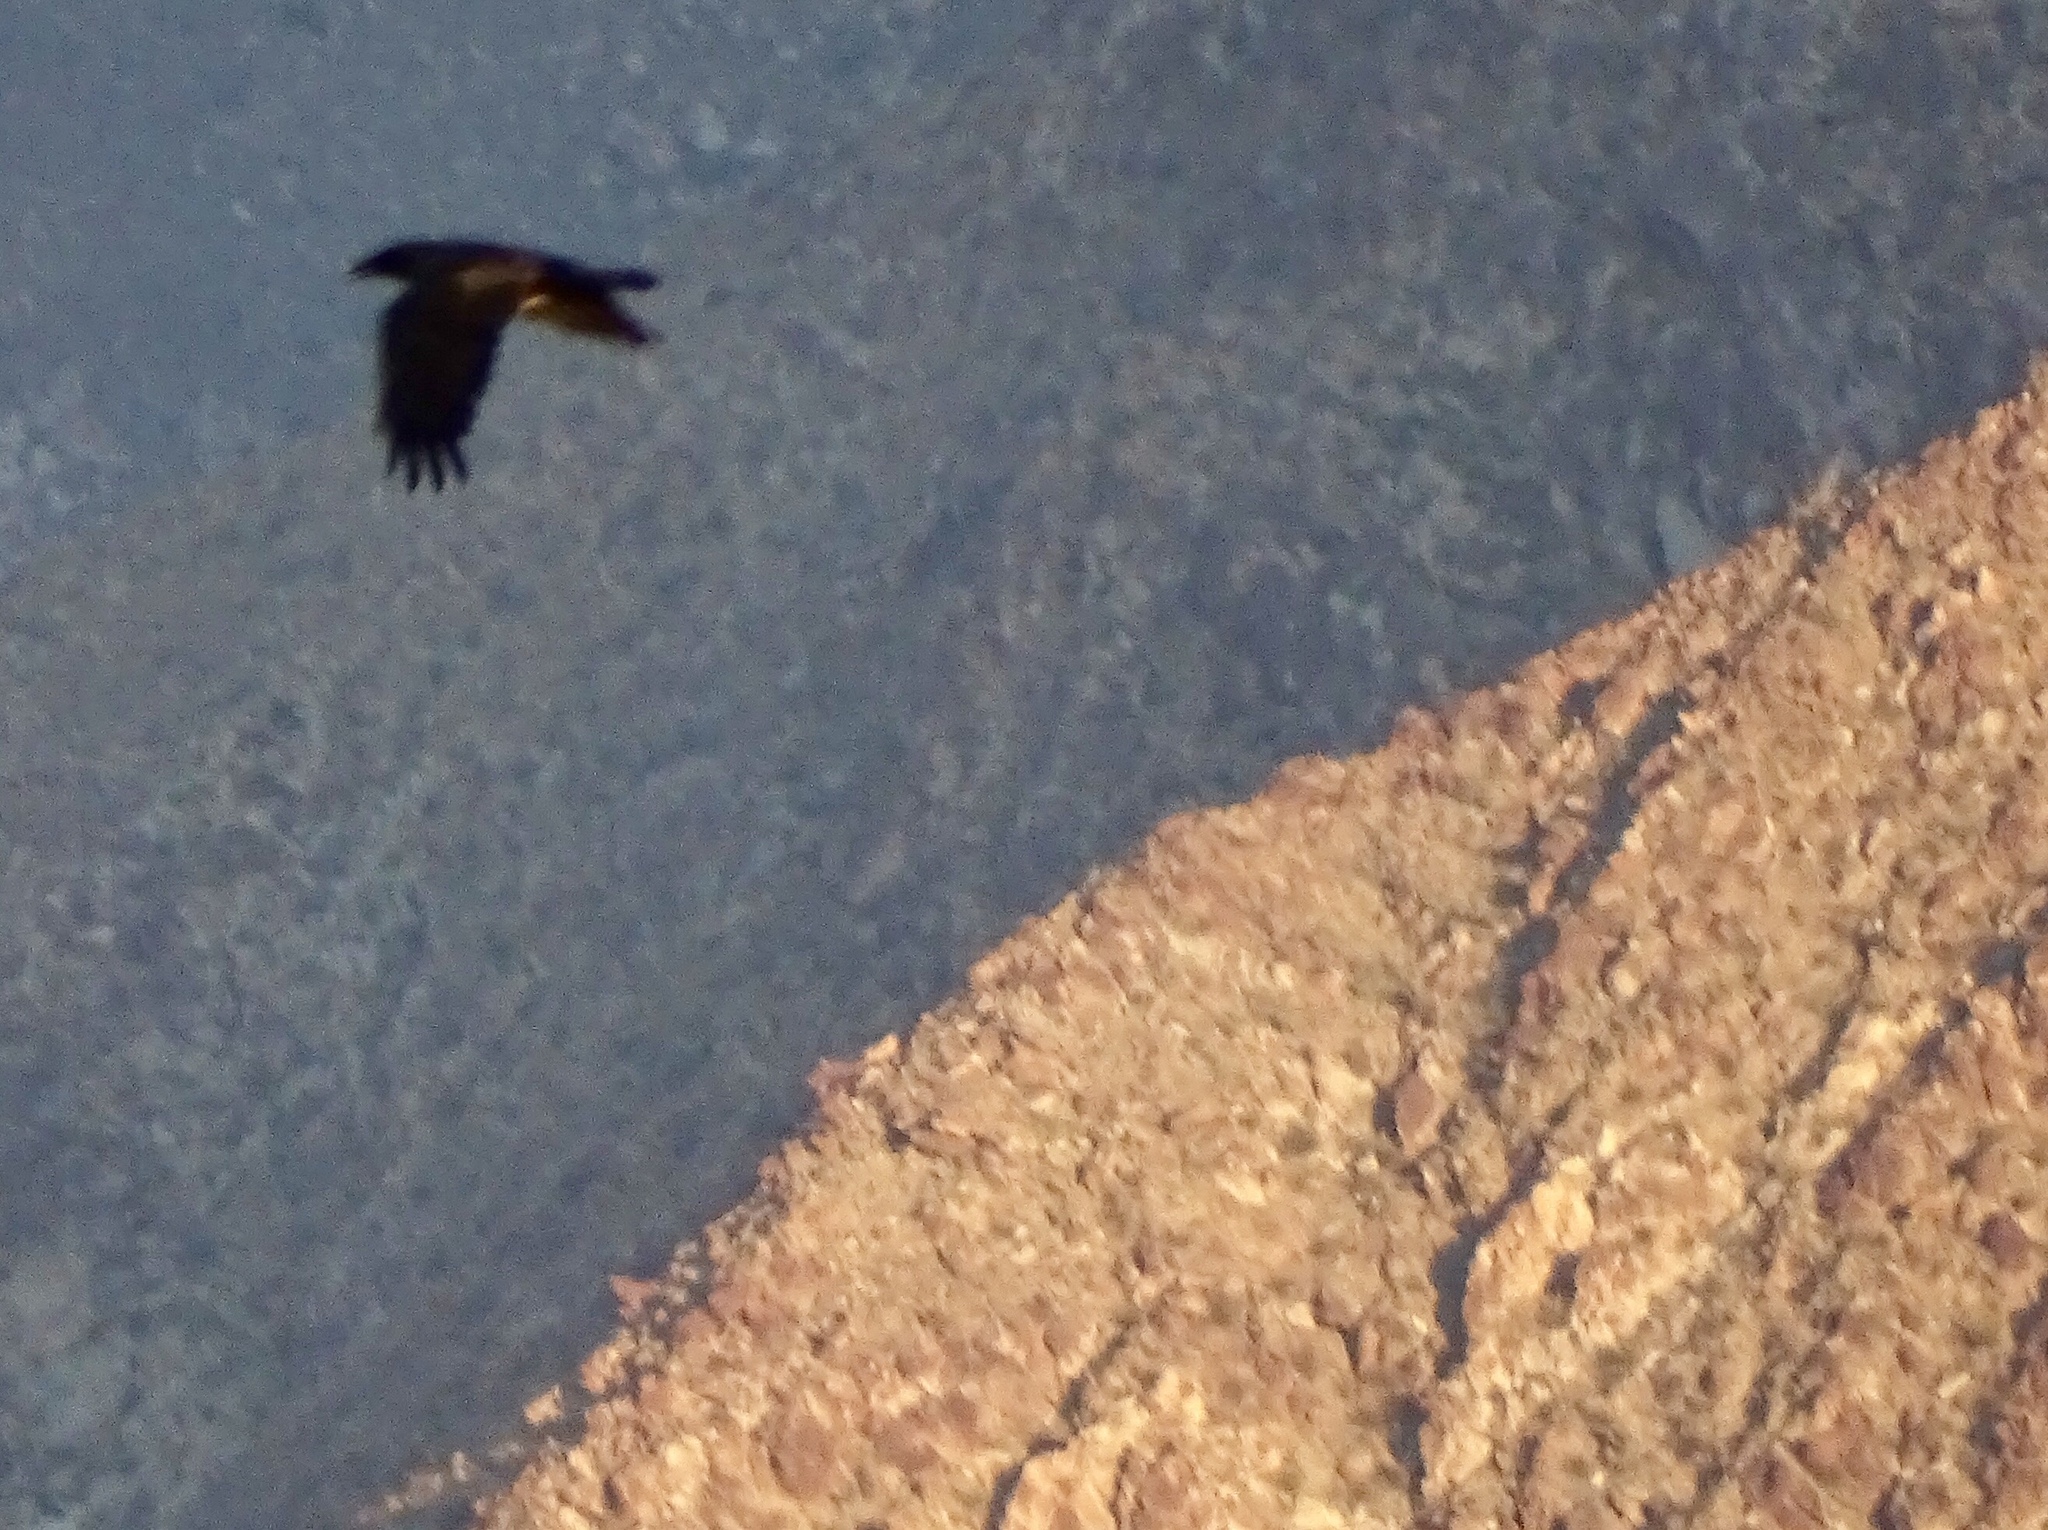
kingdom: Animalia
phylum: Chordata
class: Aves
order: Passeriformes
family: Corvidae
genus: Corvus
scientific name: Corvus corax
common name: Common raven
